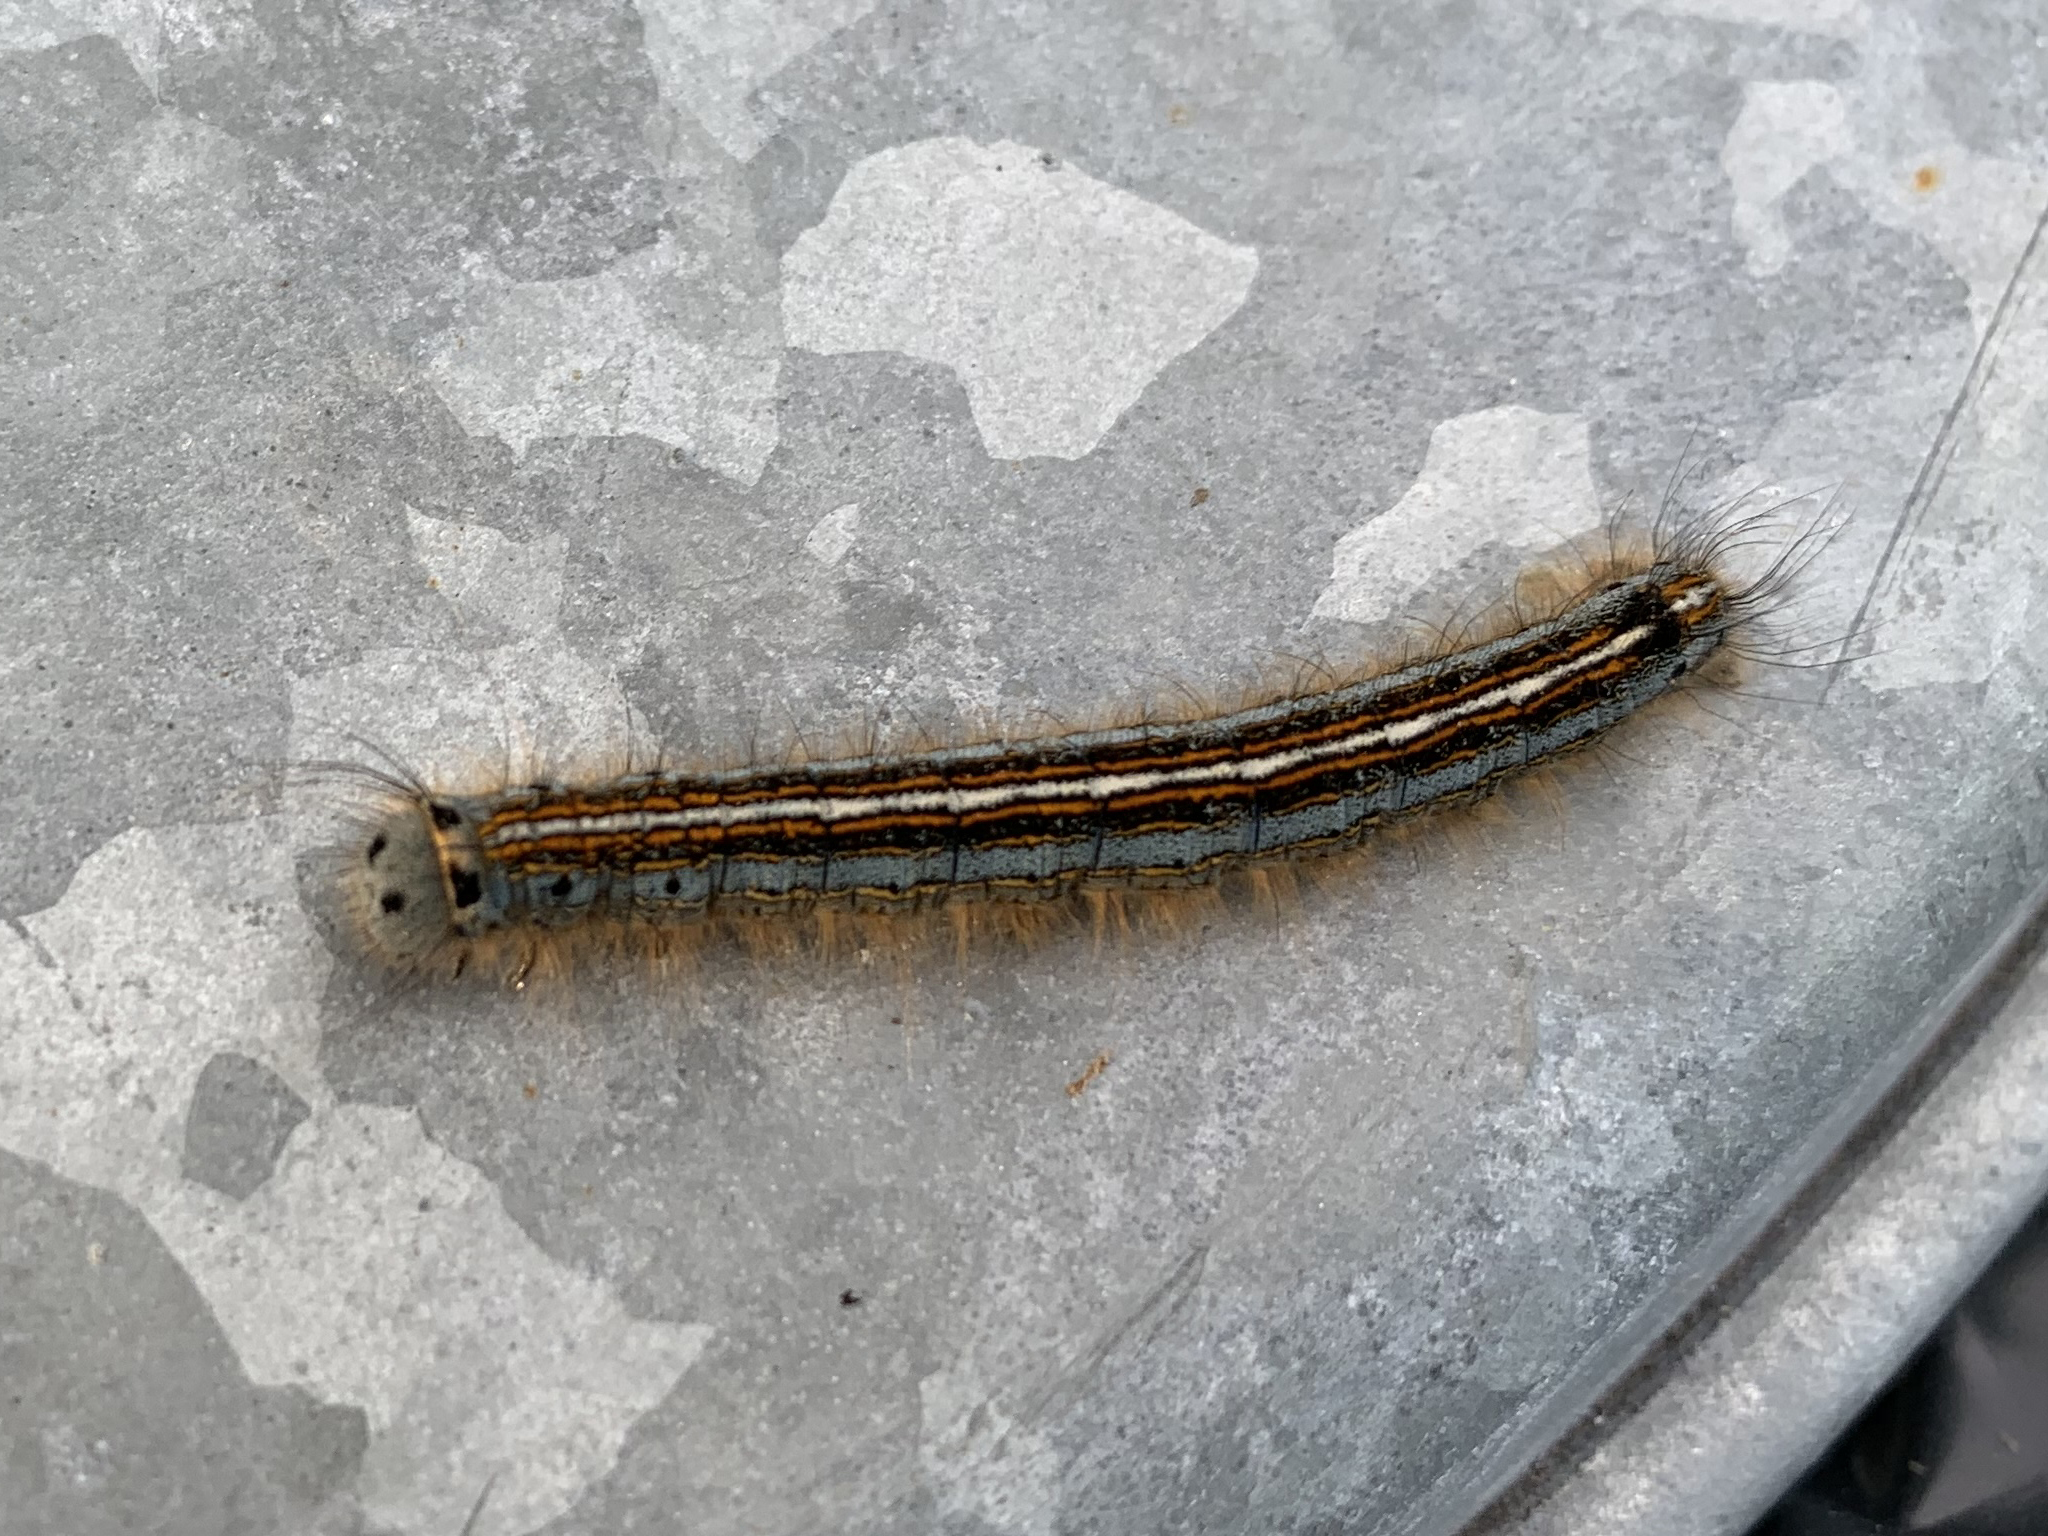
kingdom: Animalia
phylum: Arthropoda
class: Insecta
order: Lepidoptera
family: Lasiocampidae
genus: Malacosoma
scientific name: Malacosoma neustria
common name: The lackey
